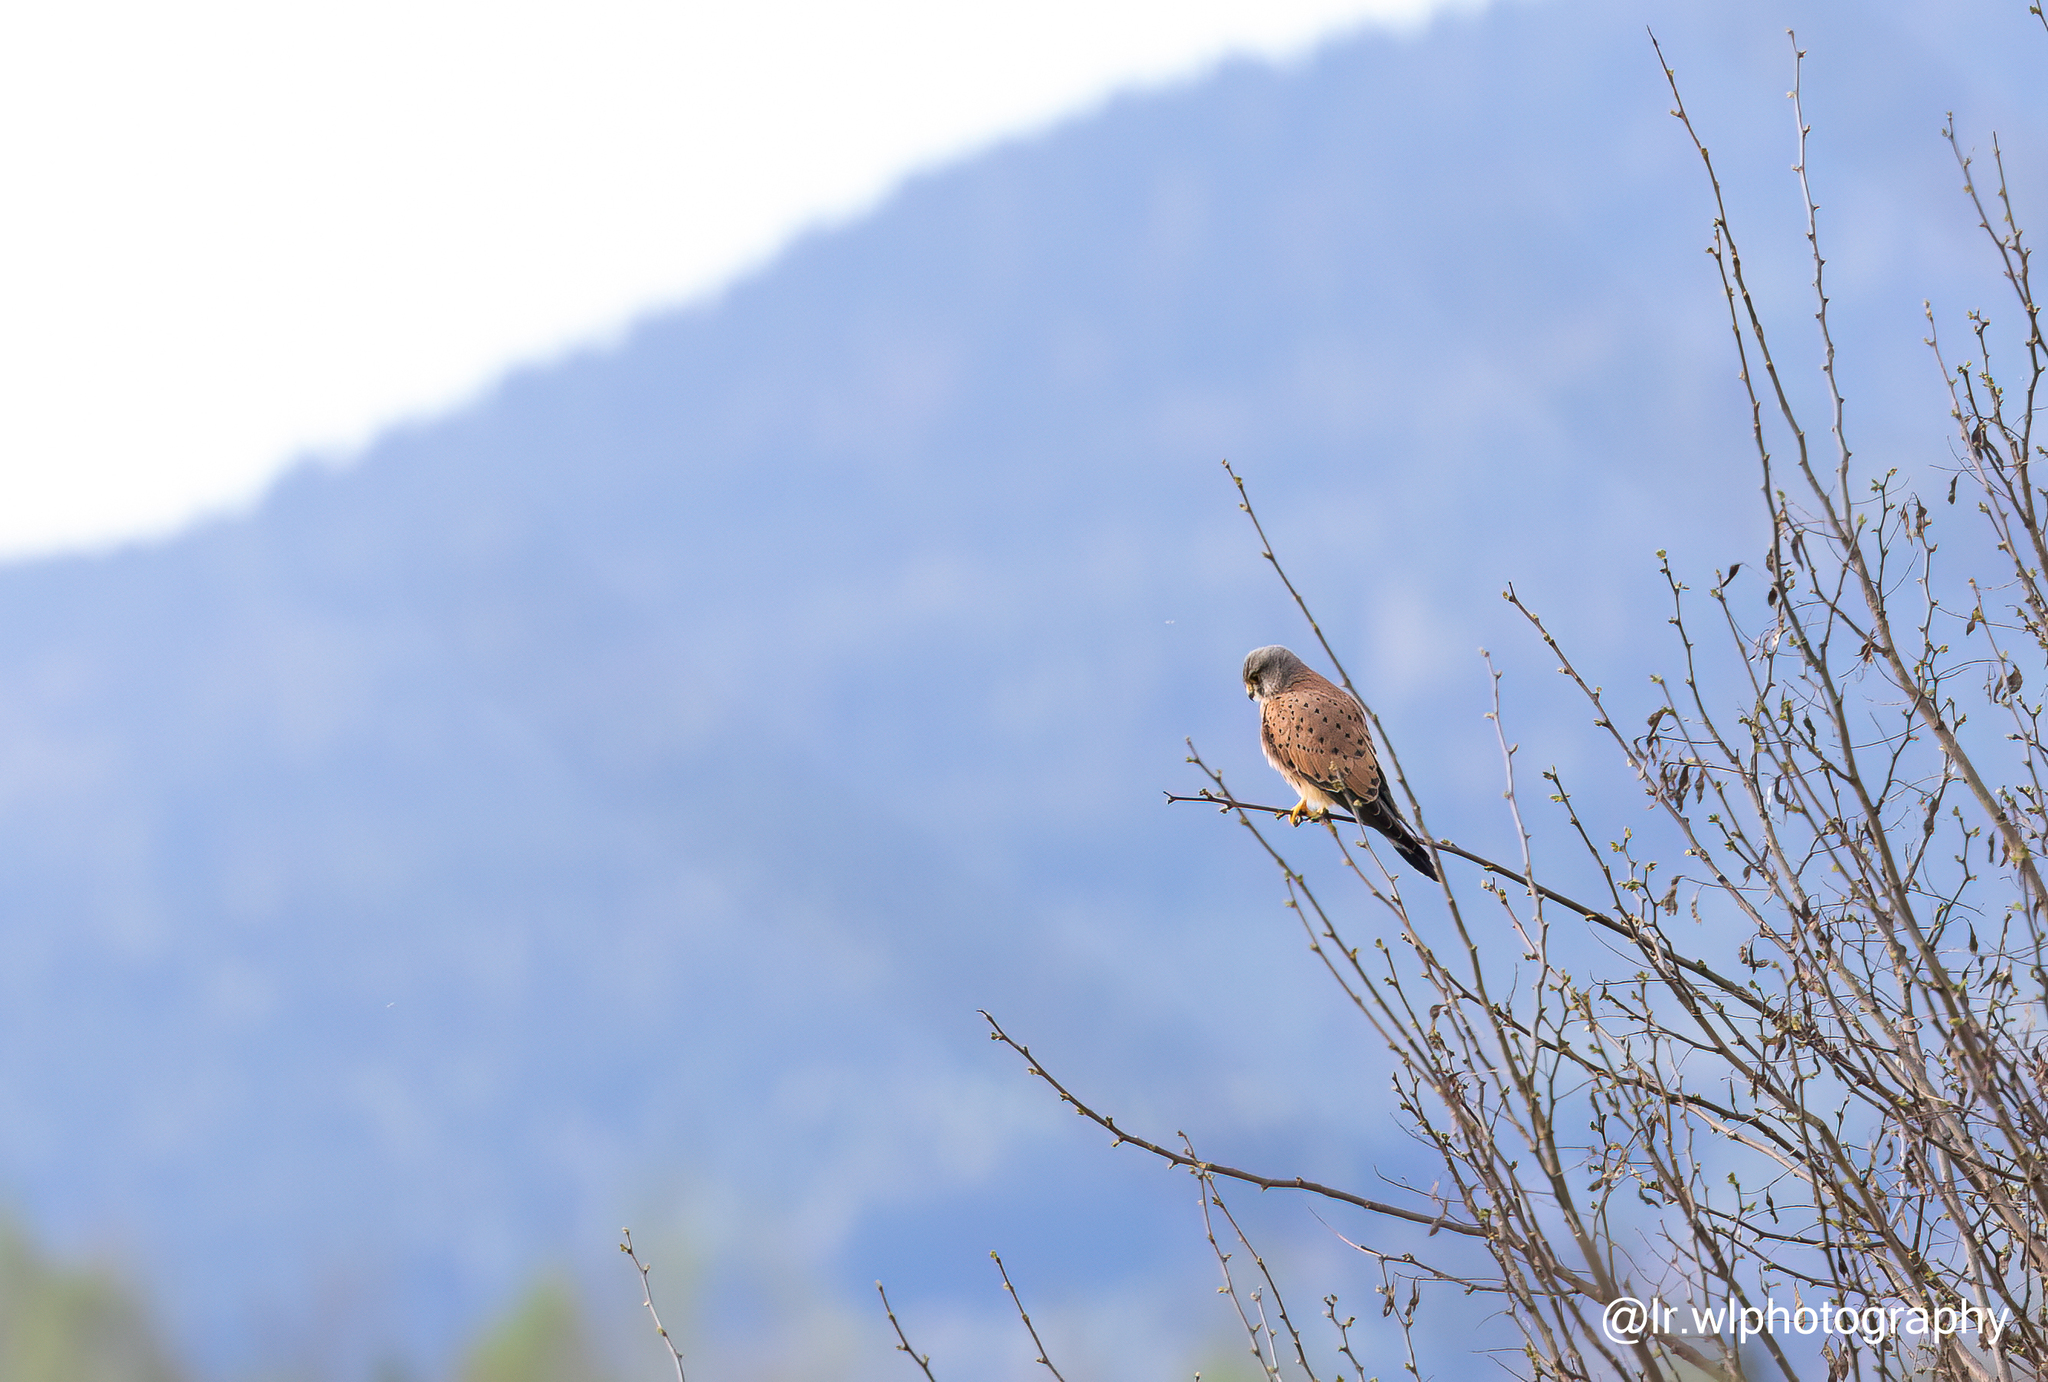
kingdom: Animalia
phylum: Chordata
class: Aves
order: Falconiformes
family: Falconidae
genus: Falco
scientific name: Falco tinnunculus
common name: Common kestrel
